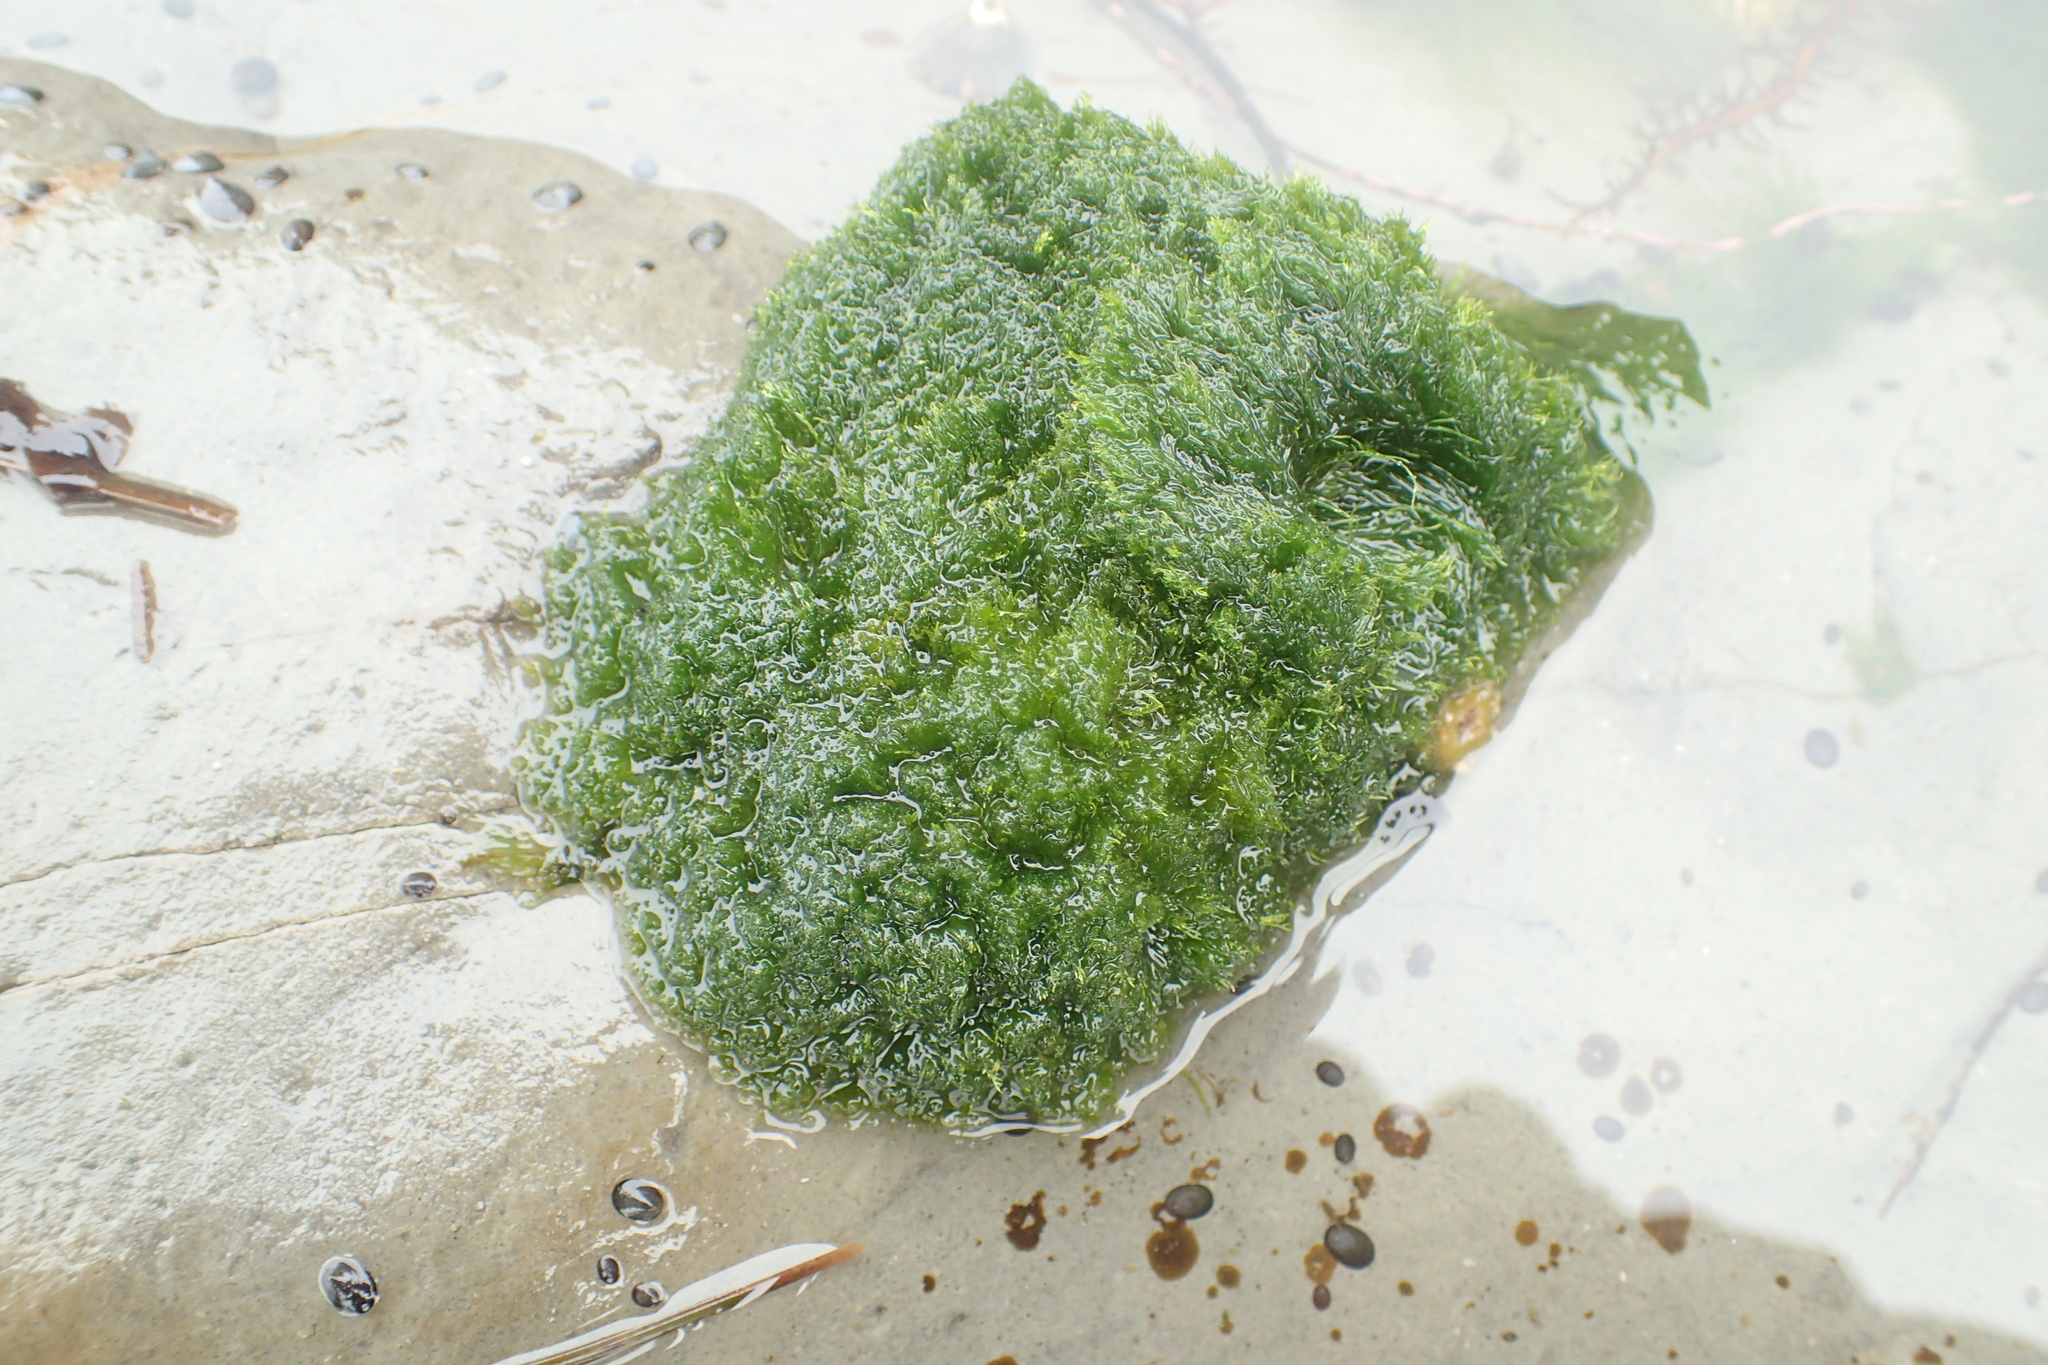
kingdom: Plantae
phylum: Chlorophyta
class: Ulvophyceae
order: Cladophorales
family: Cladophoraceae
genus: Cladophora
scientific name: Cladophora columbiana
